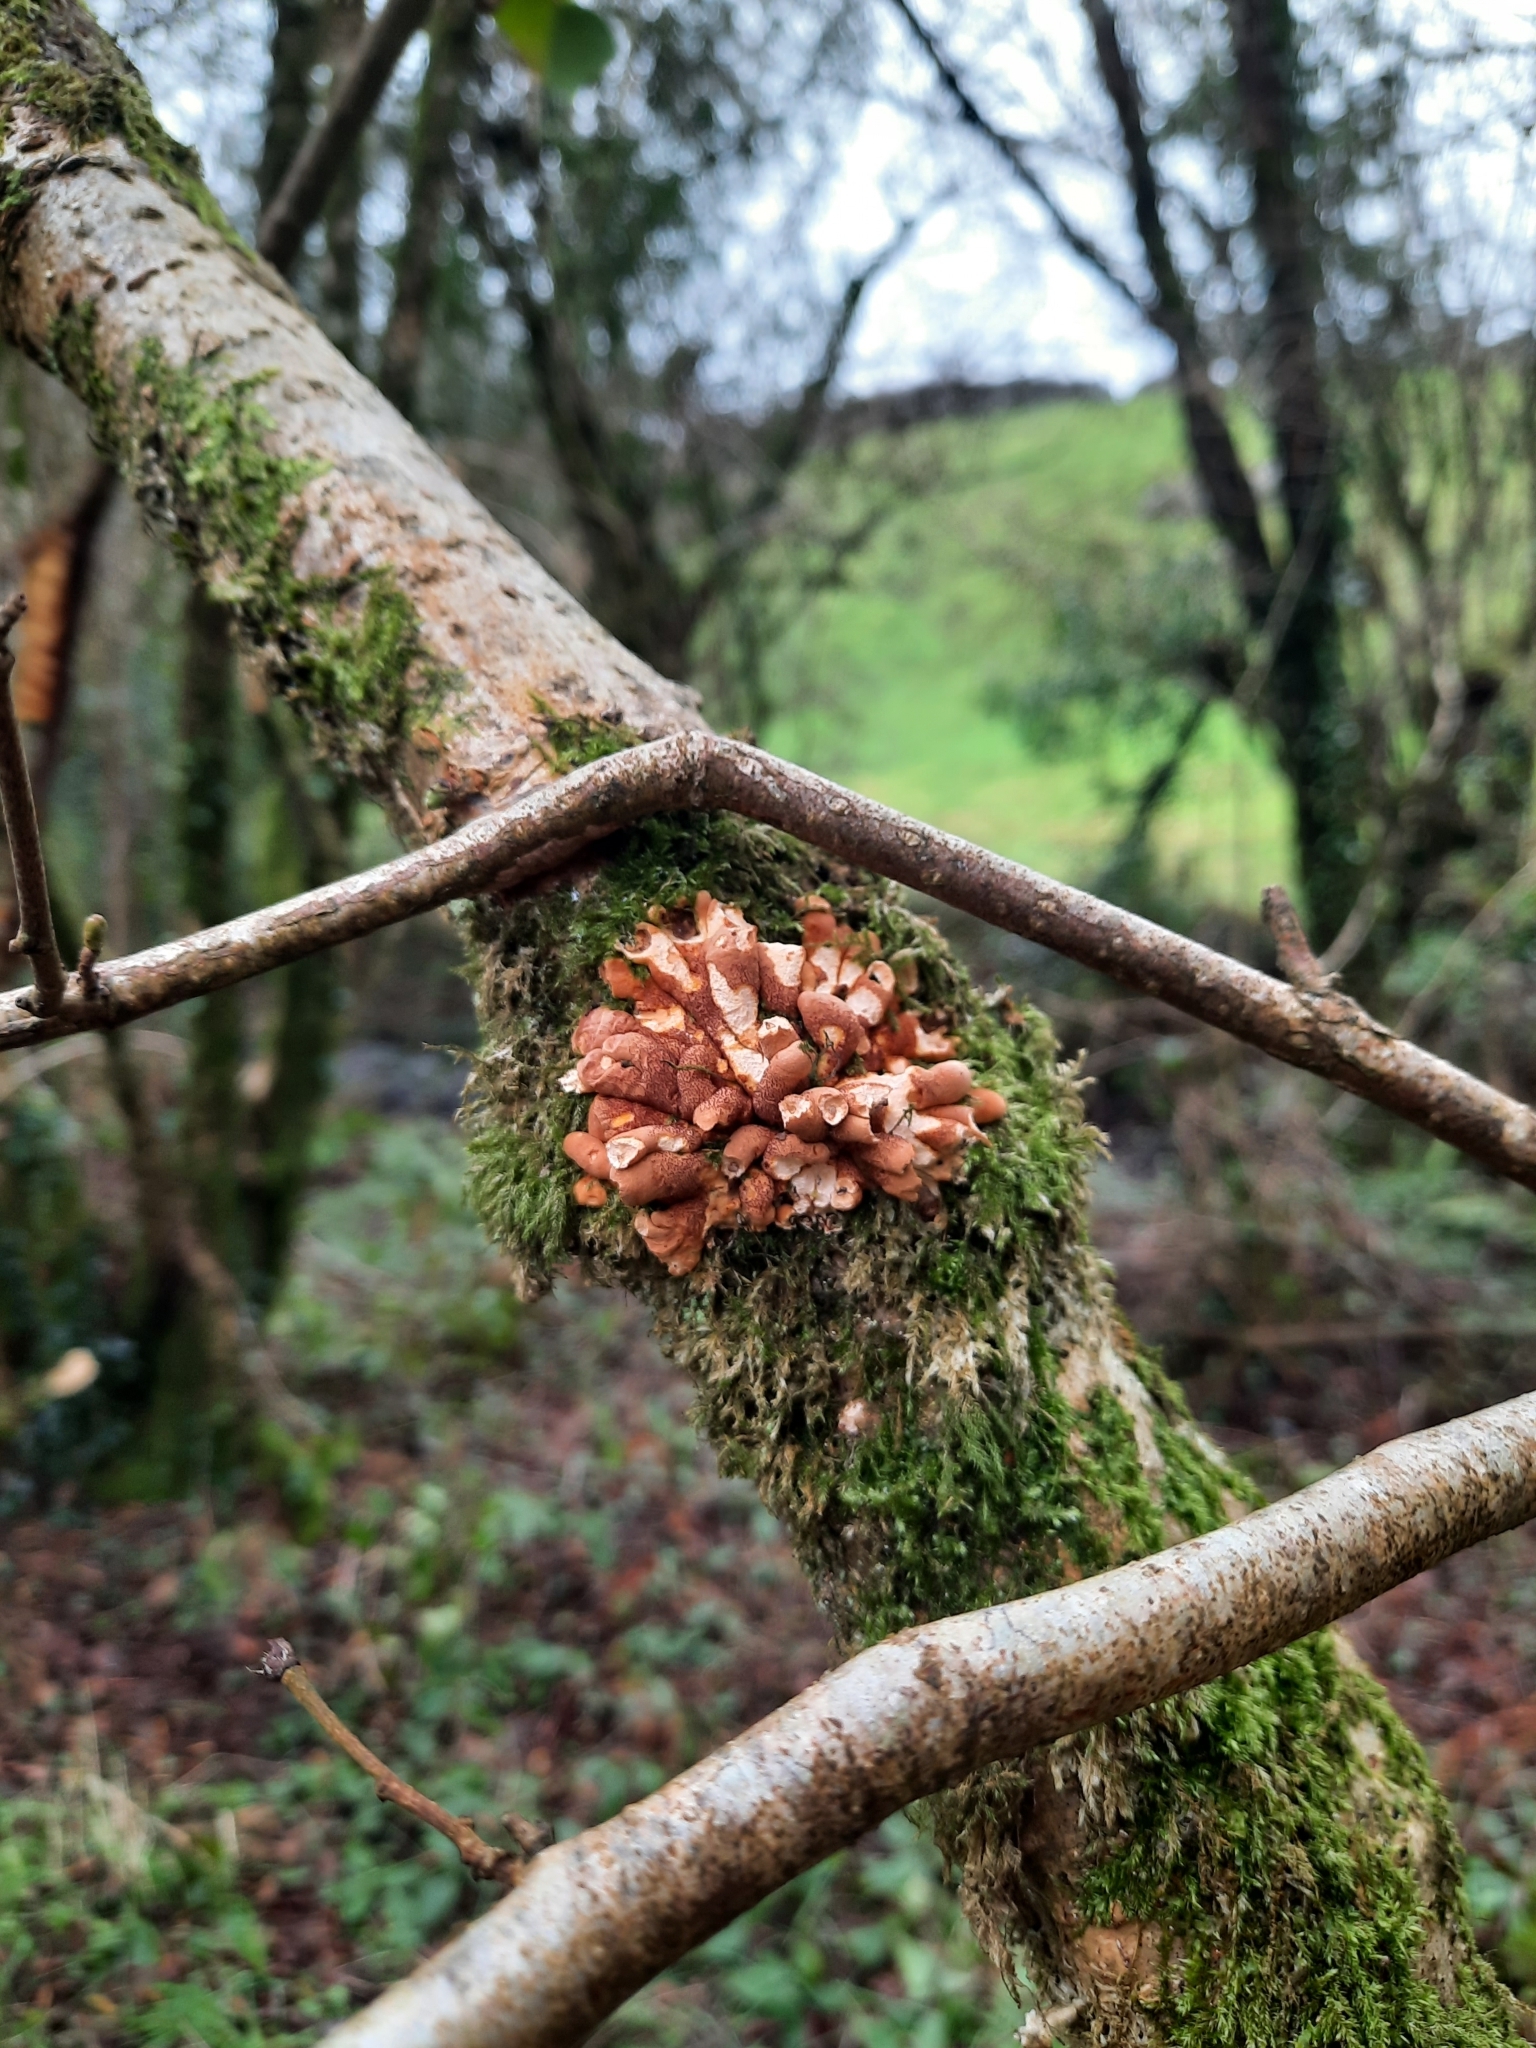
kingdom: Fungi
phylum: Ascomycota
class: Sordariomycetes
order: Hypocreales
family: Hypocreaceae
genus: Hypocreopsis
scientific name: Hypocreopsis rhododendri
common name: Hazel gloves
